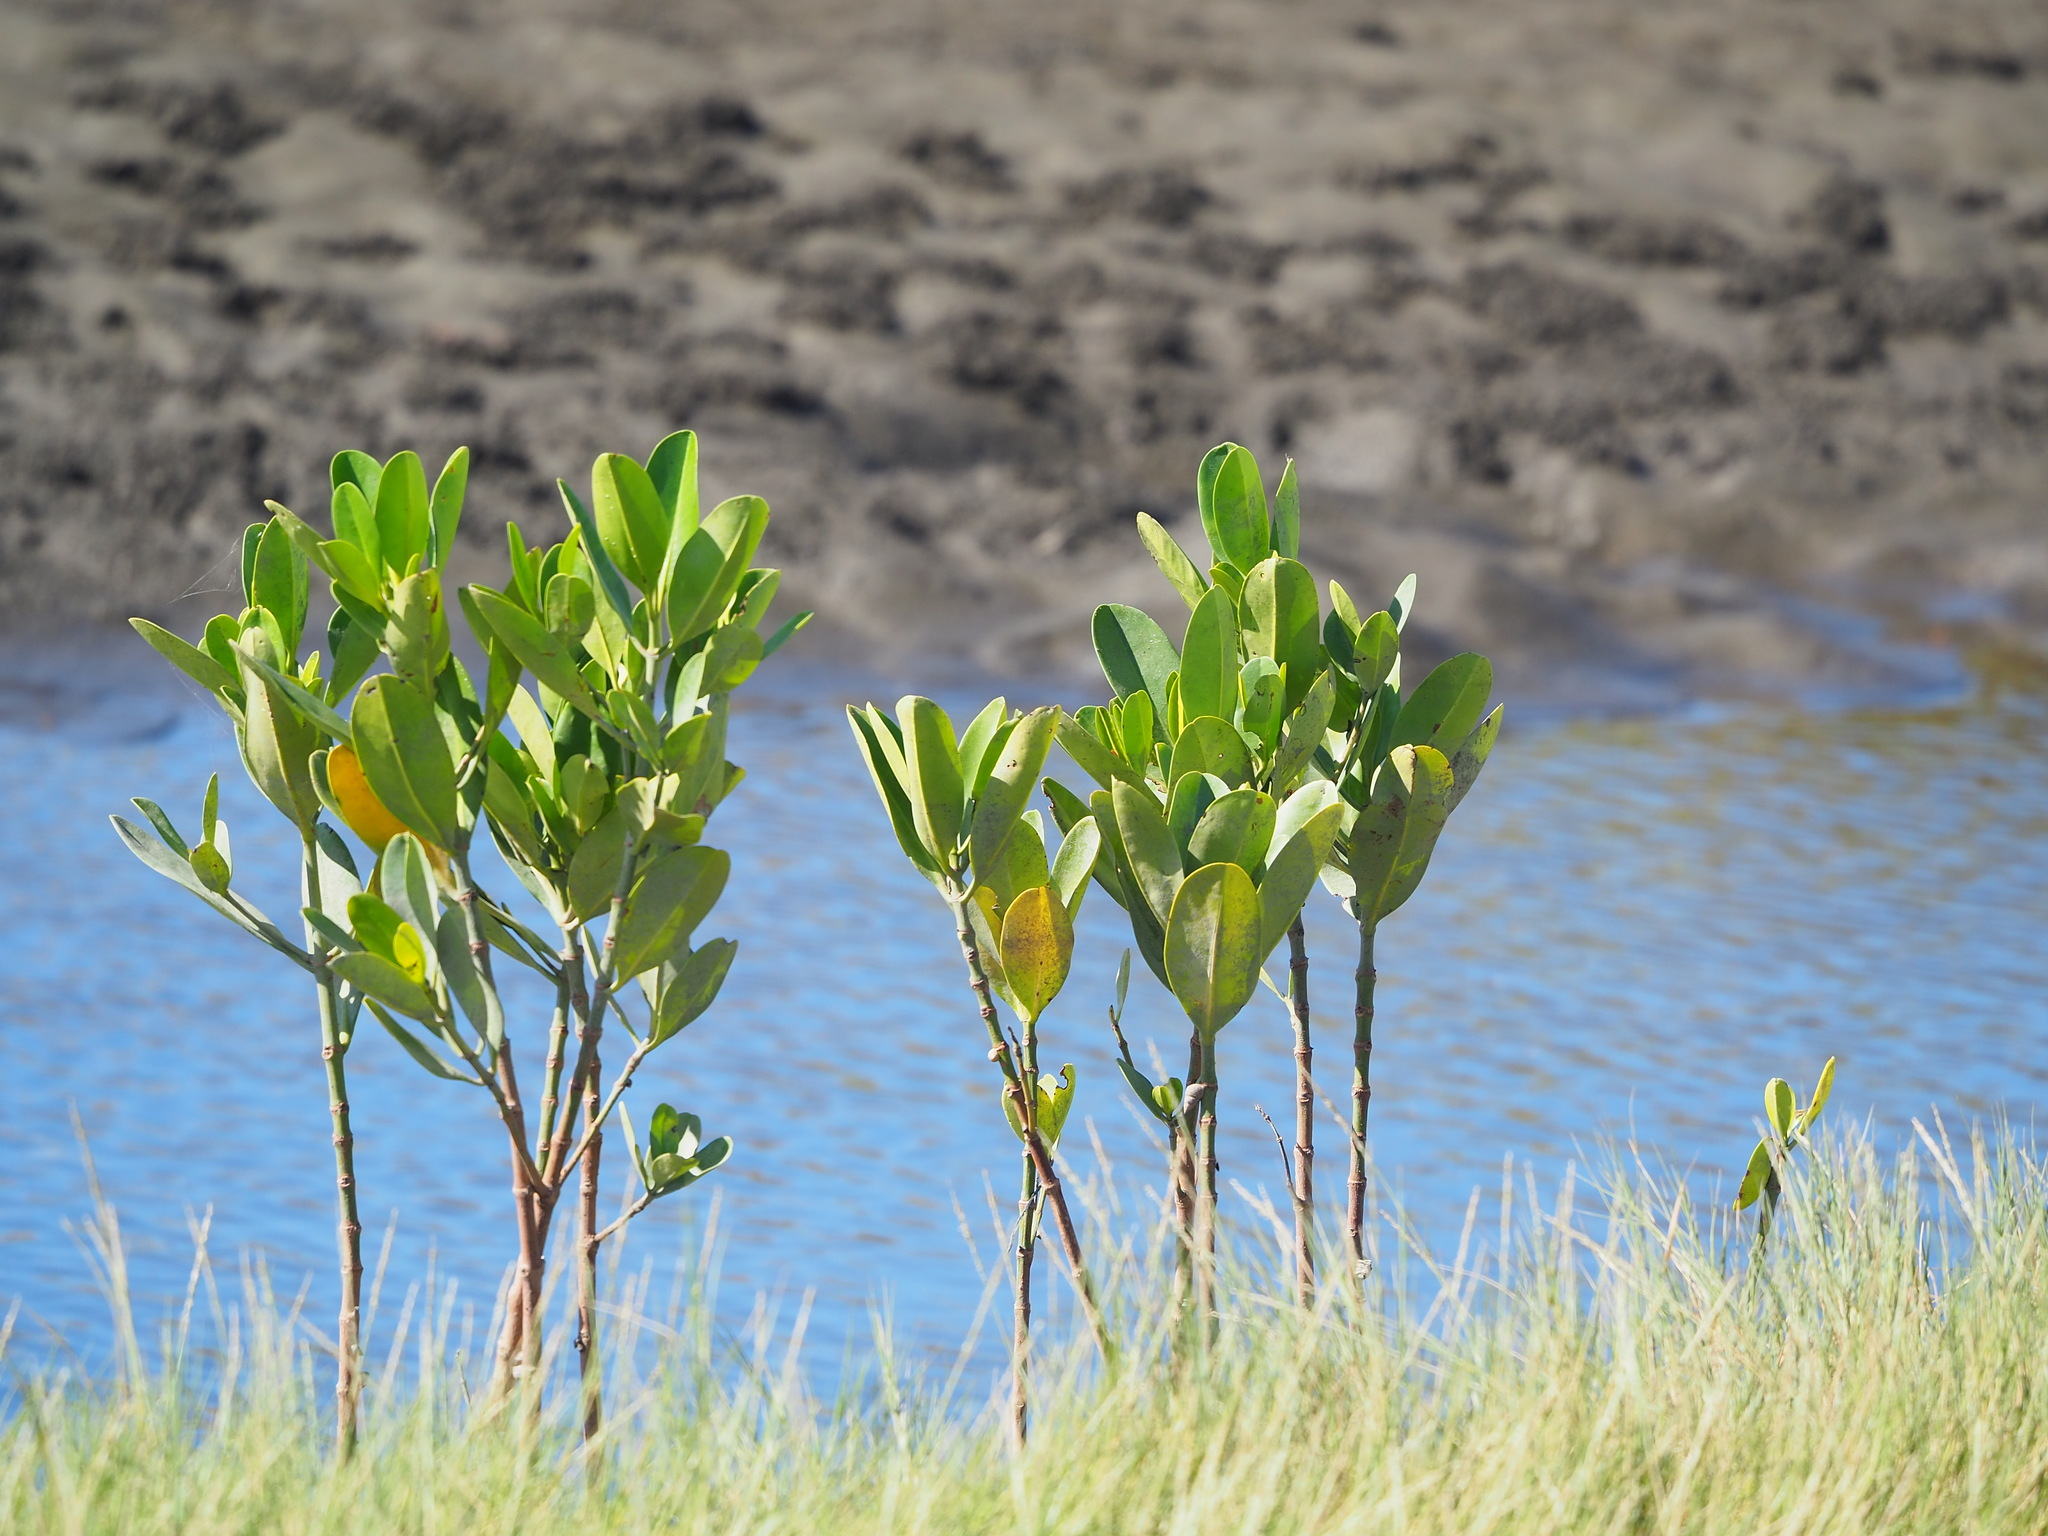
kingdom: Plantae
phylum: Tracheophyta
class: Magnoliopsida
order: Malpighiales
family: Rhizophoraceae
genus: Kandelia
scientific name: Kandelia obovata
